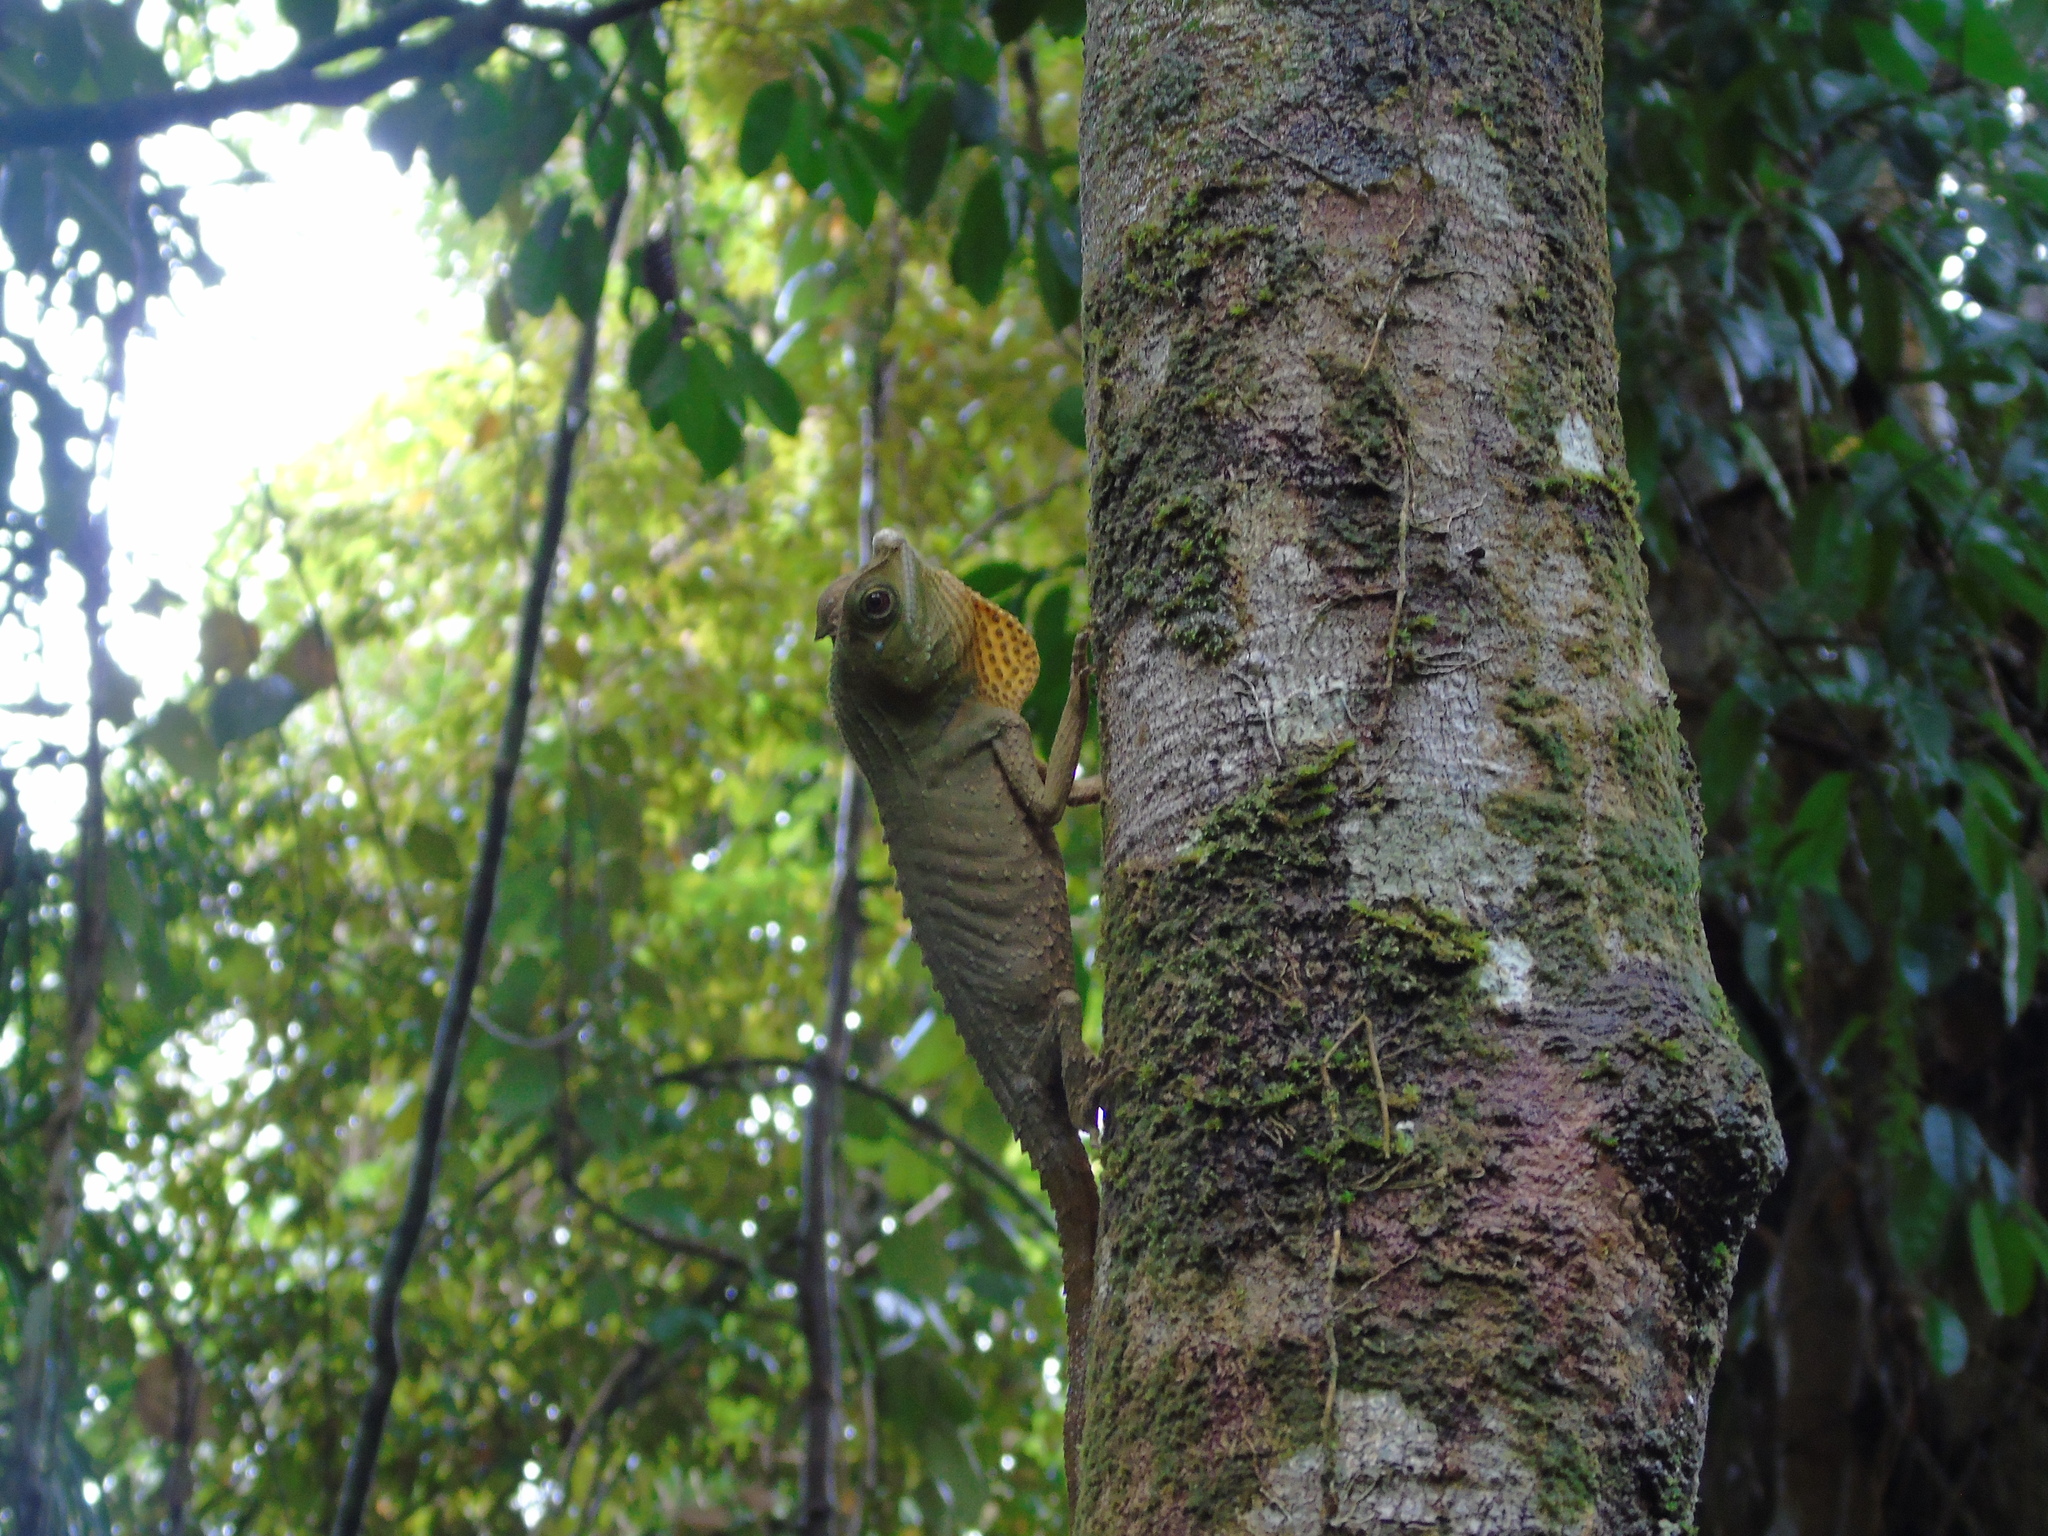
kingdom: Animalia
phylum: Chordata
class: Squamata
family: Agamidae
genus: Lyriocephalus
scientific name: Lyriocephalus scutatus
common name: Hump snout lizard
